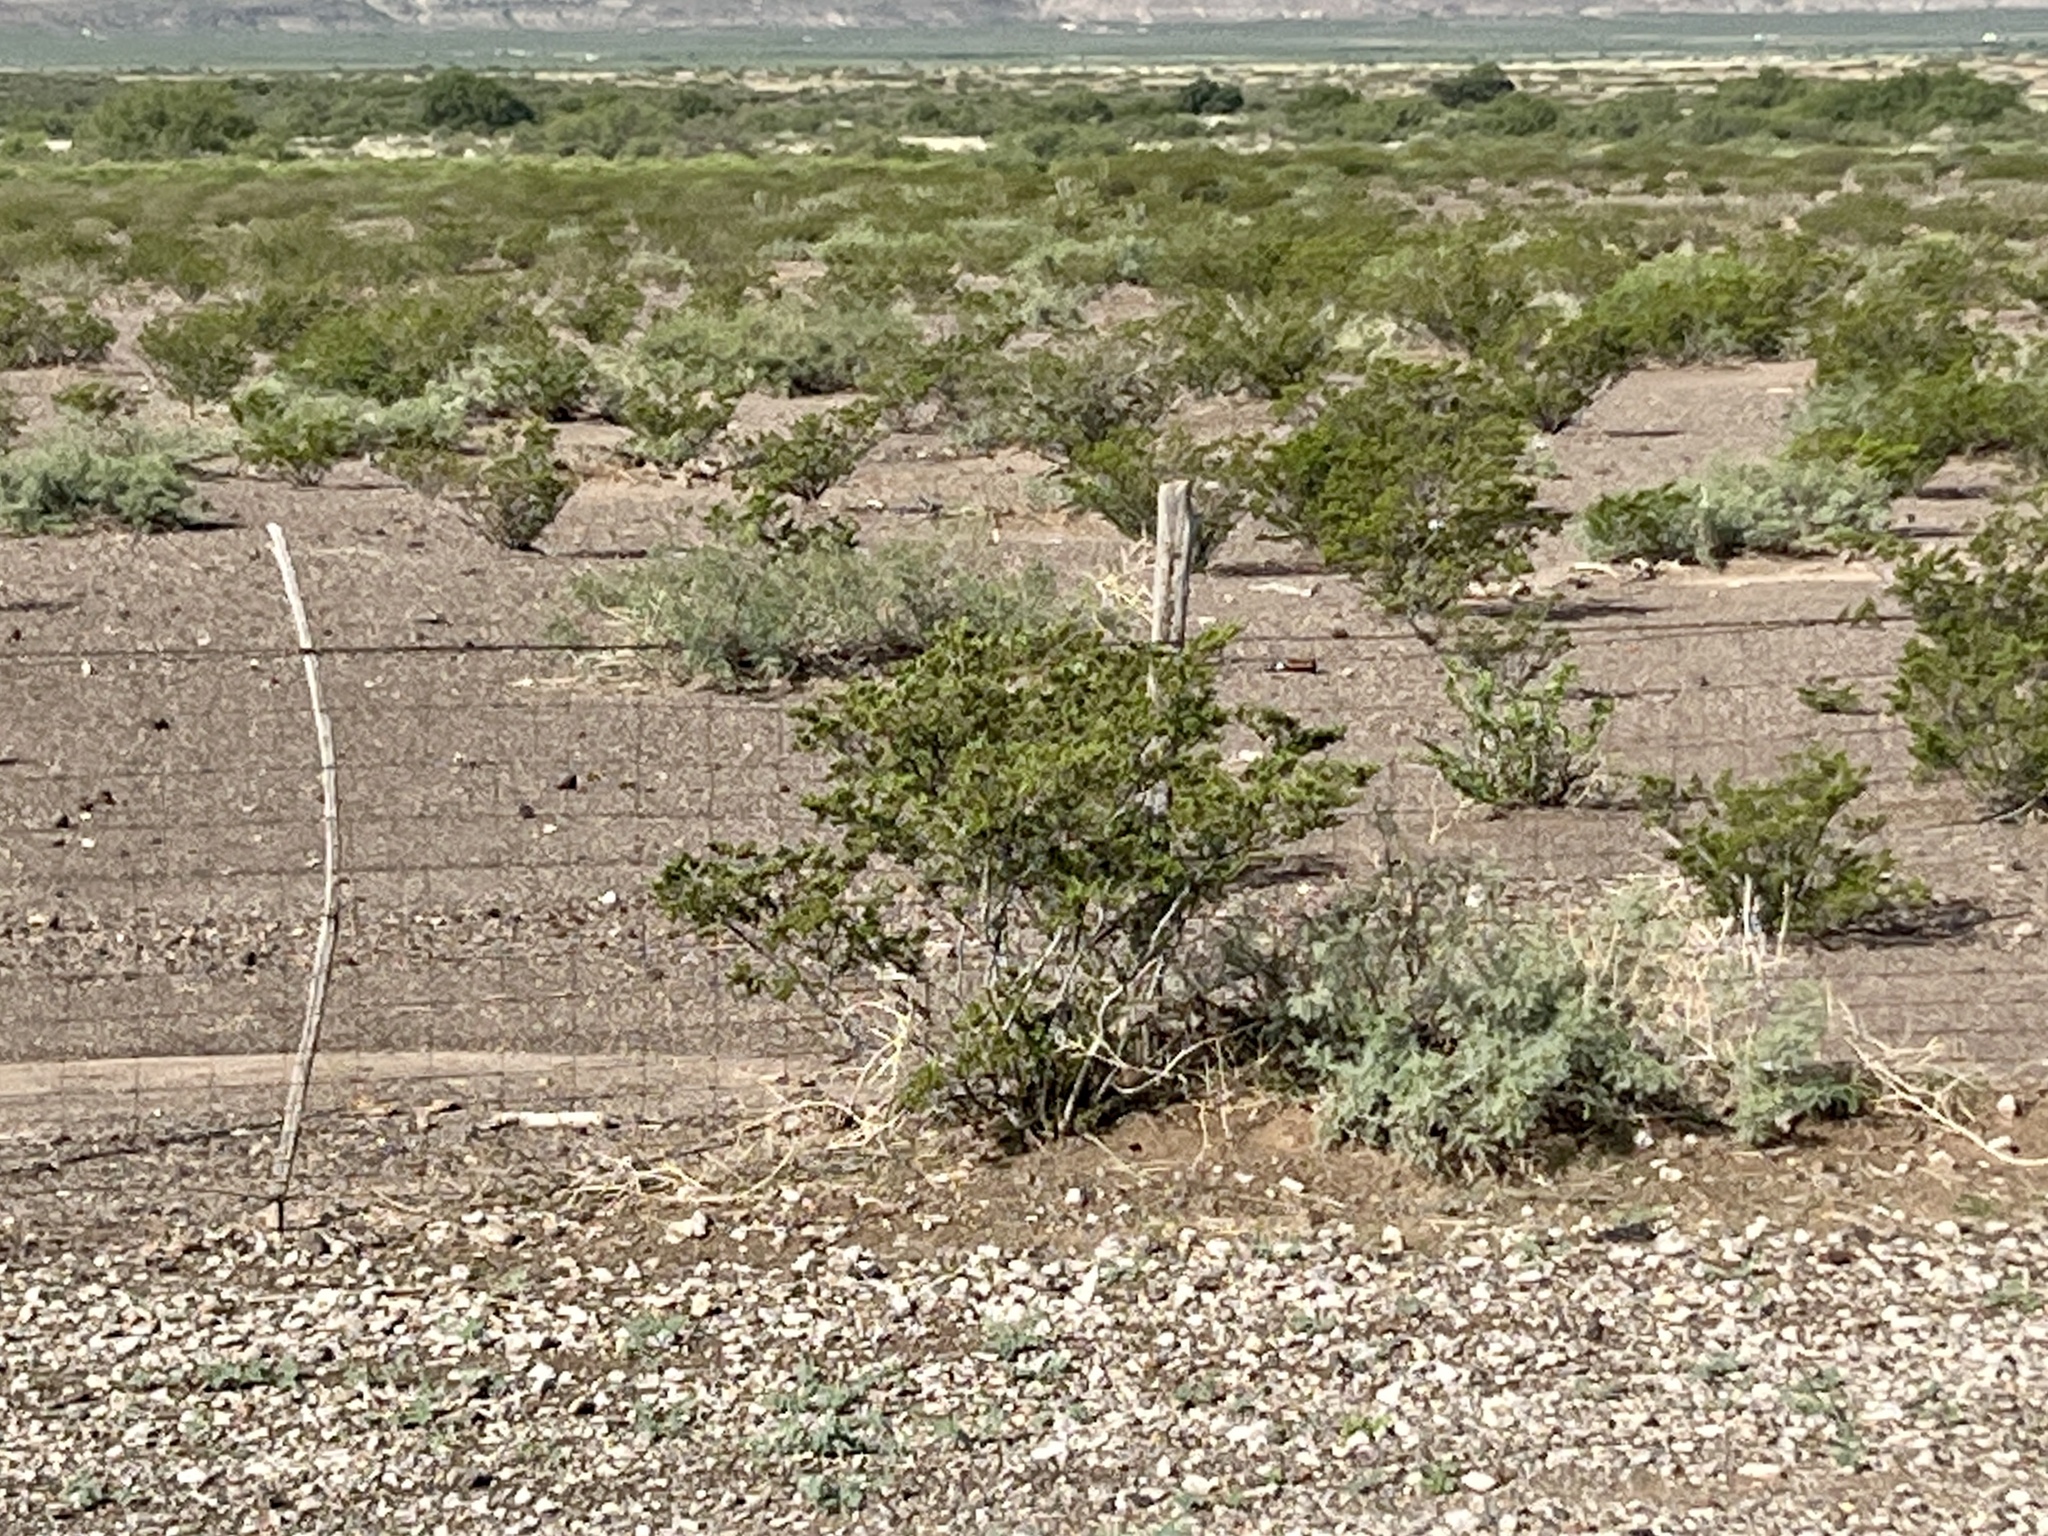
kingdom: Plantae
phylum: Tracheophyta
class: Magnoliopsida
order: Zygophyllales
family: Zygophyllaceae
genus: Larrea
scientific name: Larrea tridentata
